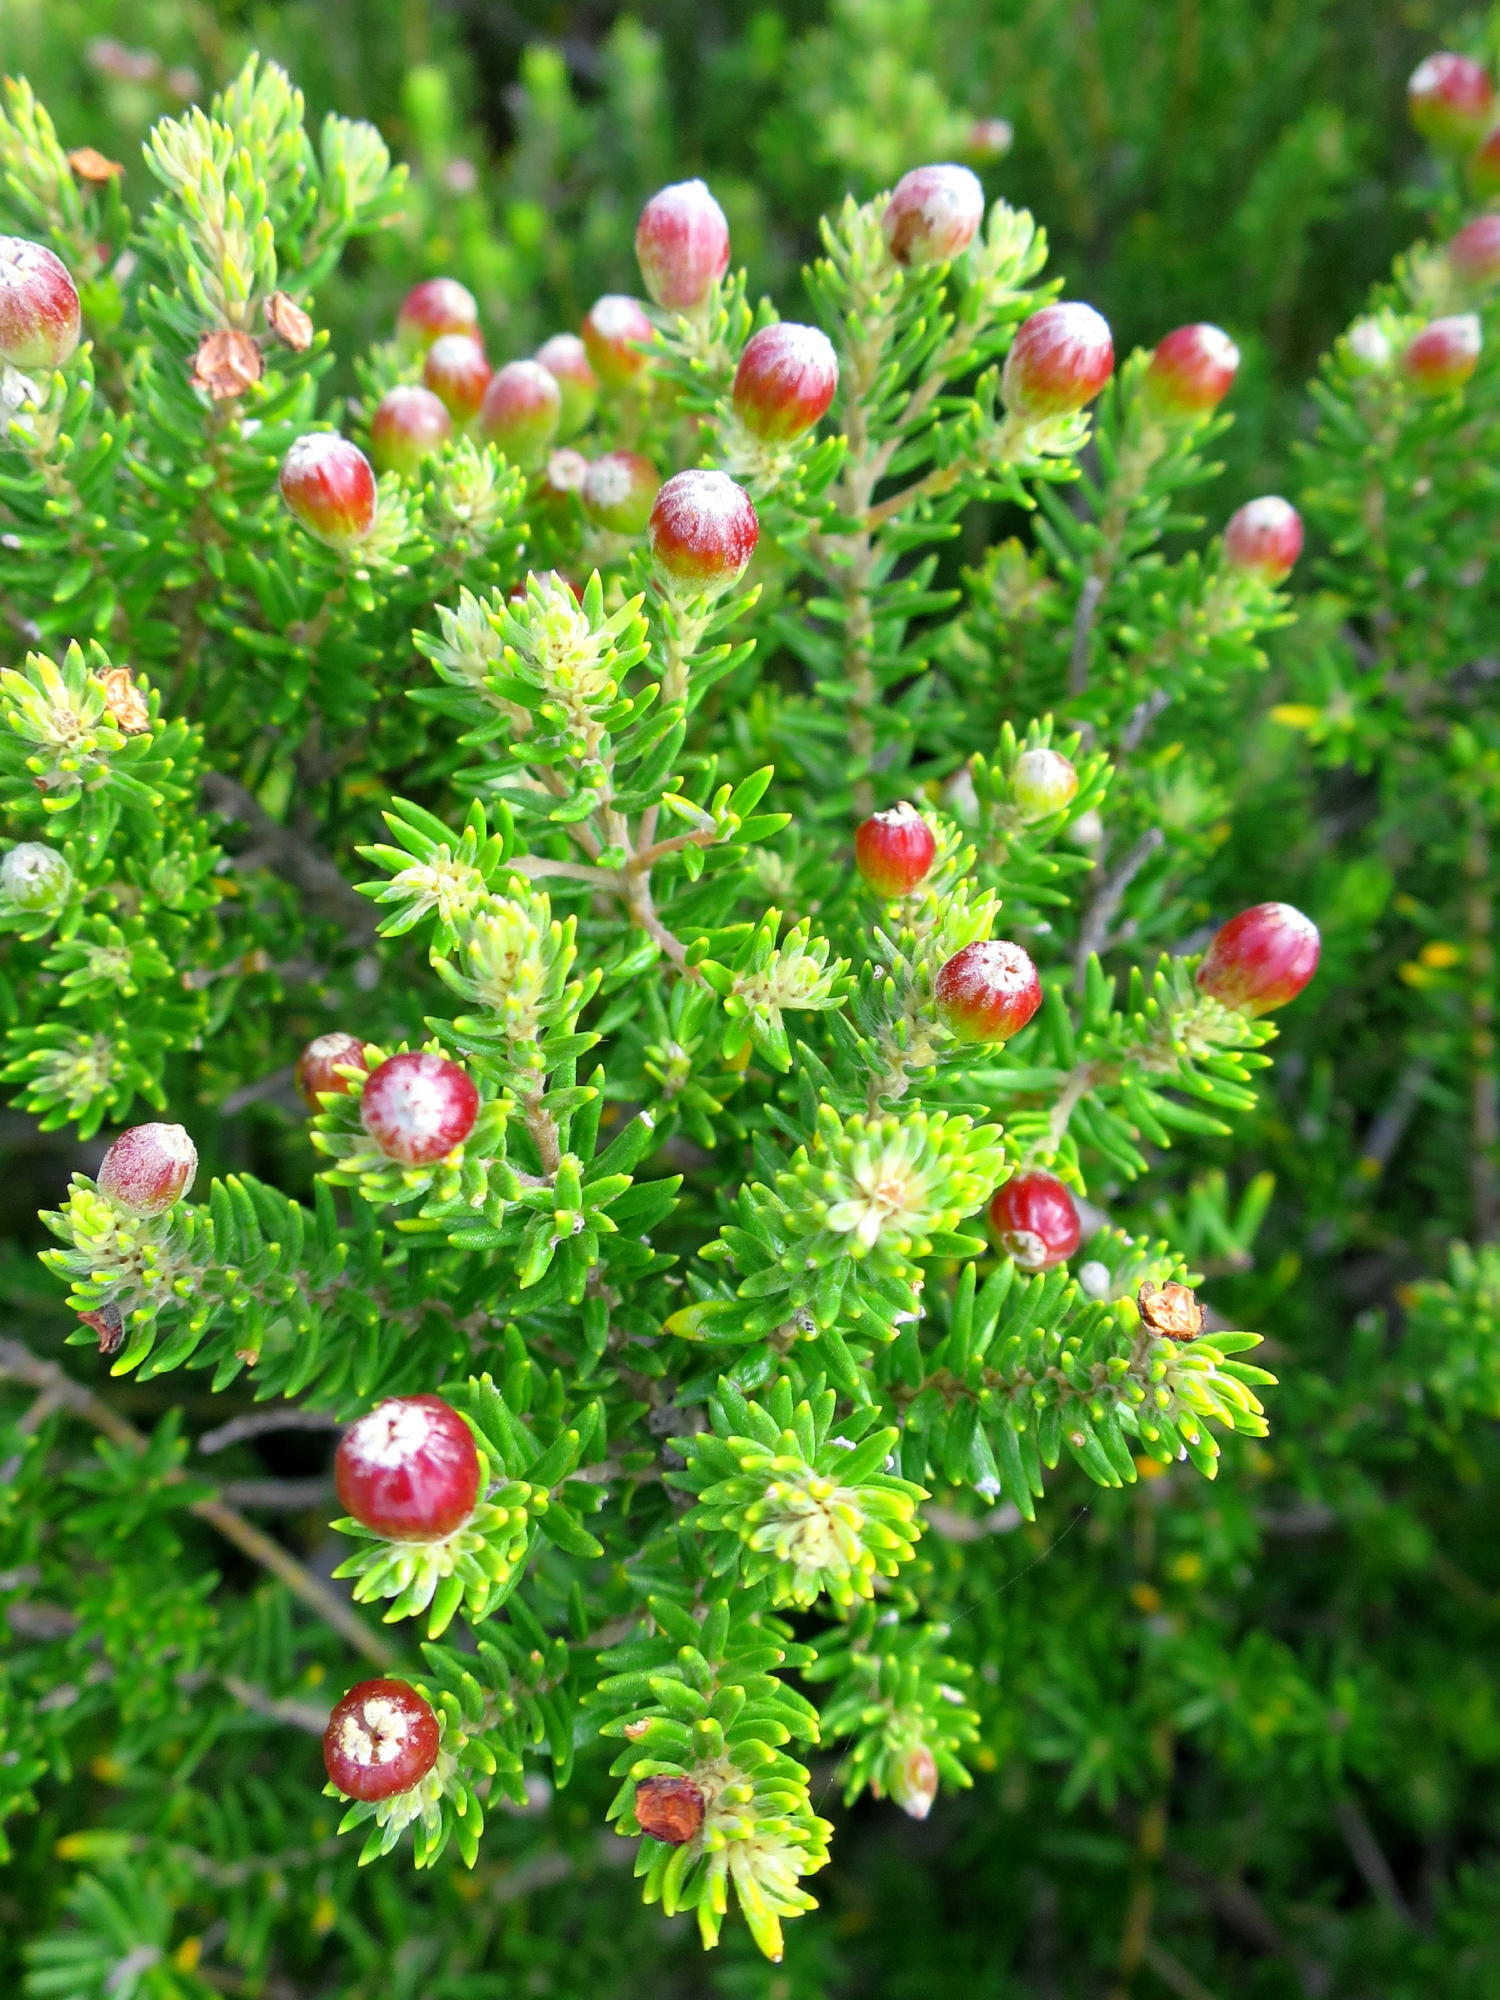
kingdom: Plantae
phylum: Tracheophyta
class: Magnoliopsida
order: Rosales
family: Rhamnaceae
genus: Phylica
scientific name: Phylica ericoides
